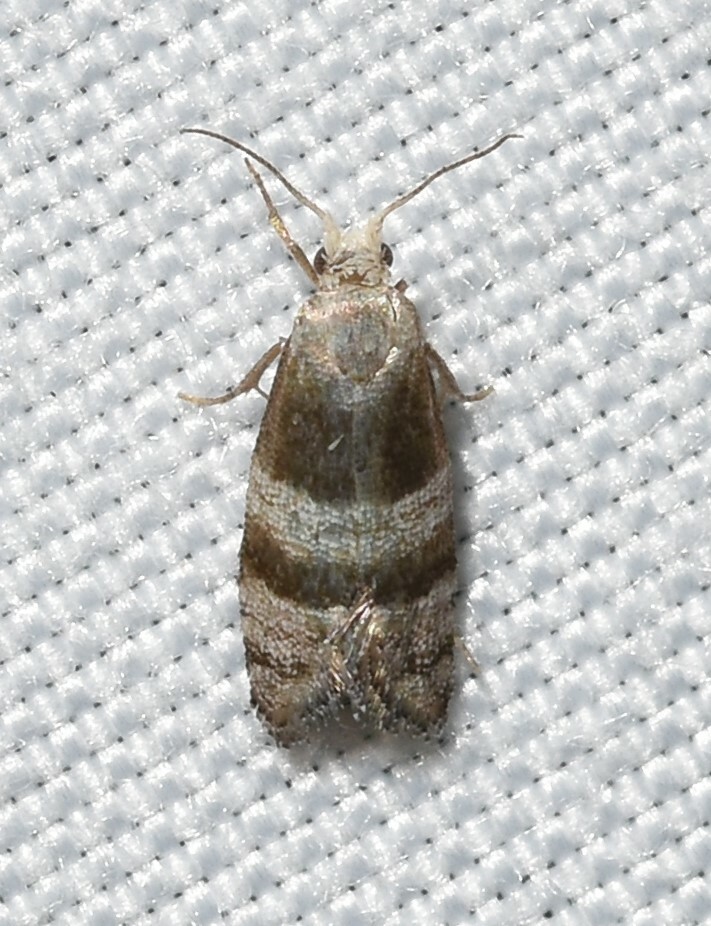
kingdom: Animalia
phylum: Arthropoda
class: Insecta
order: Lepidoptera
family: Tortricidae
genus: Corticivora
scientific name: Corticivora parva
